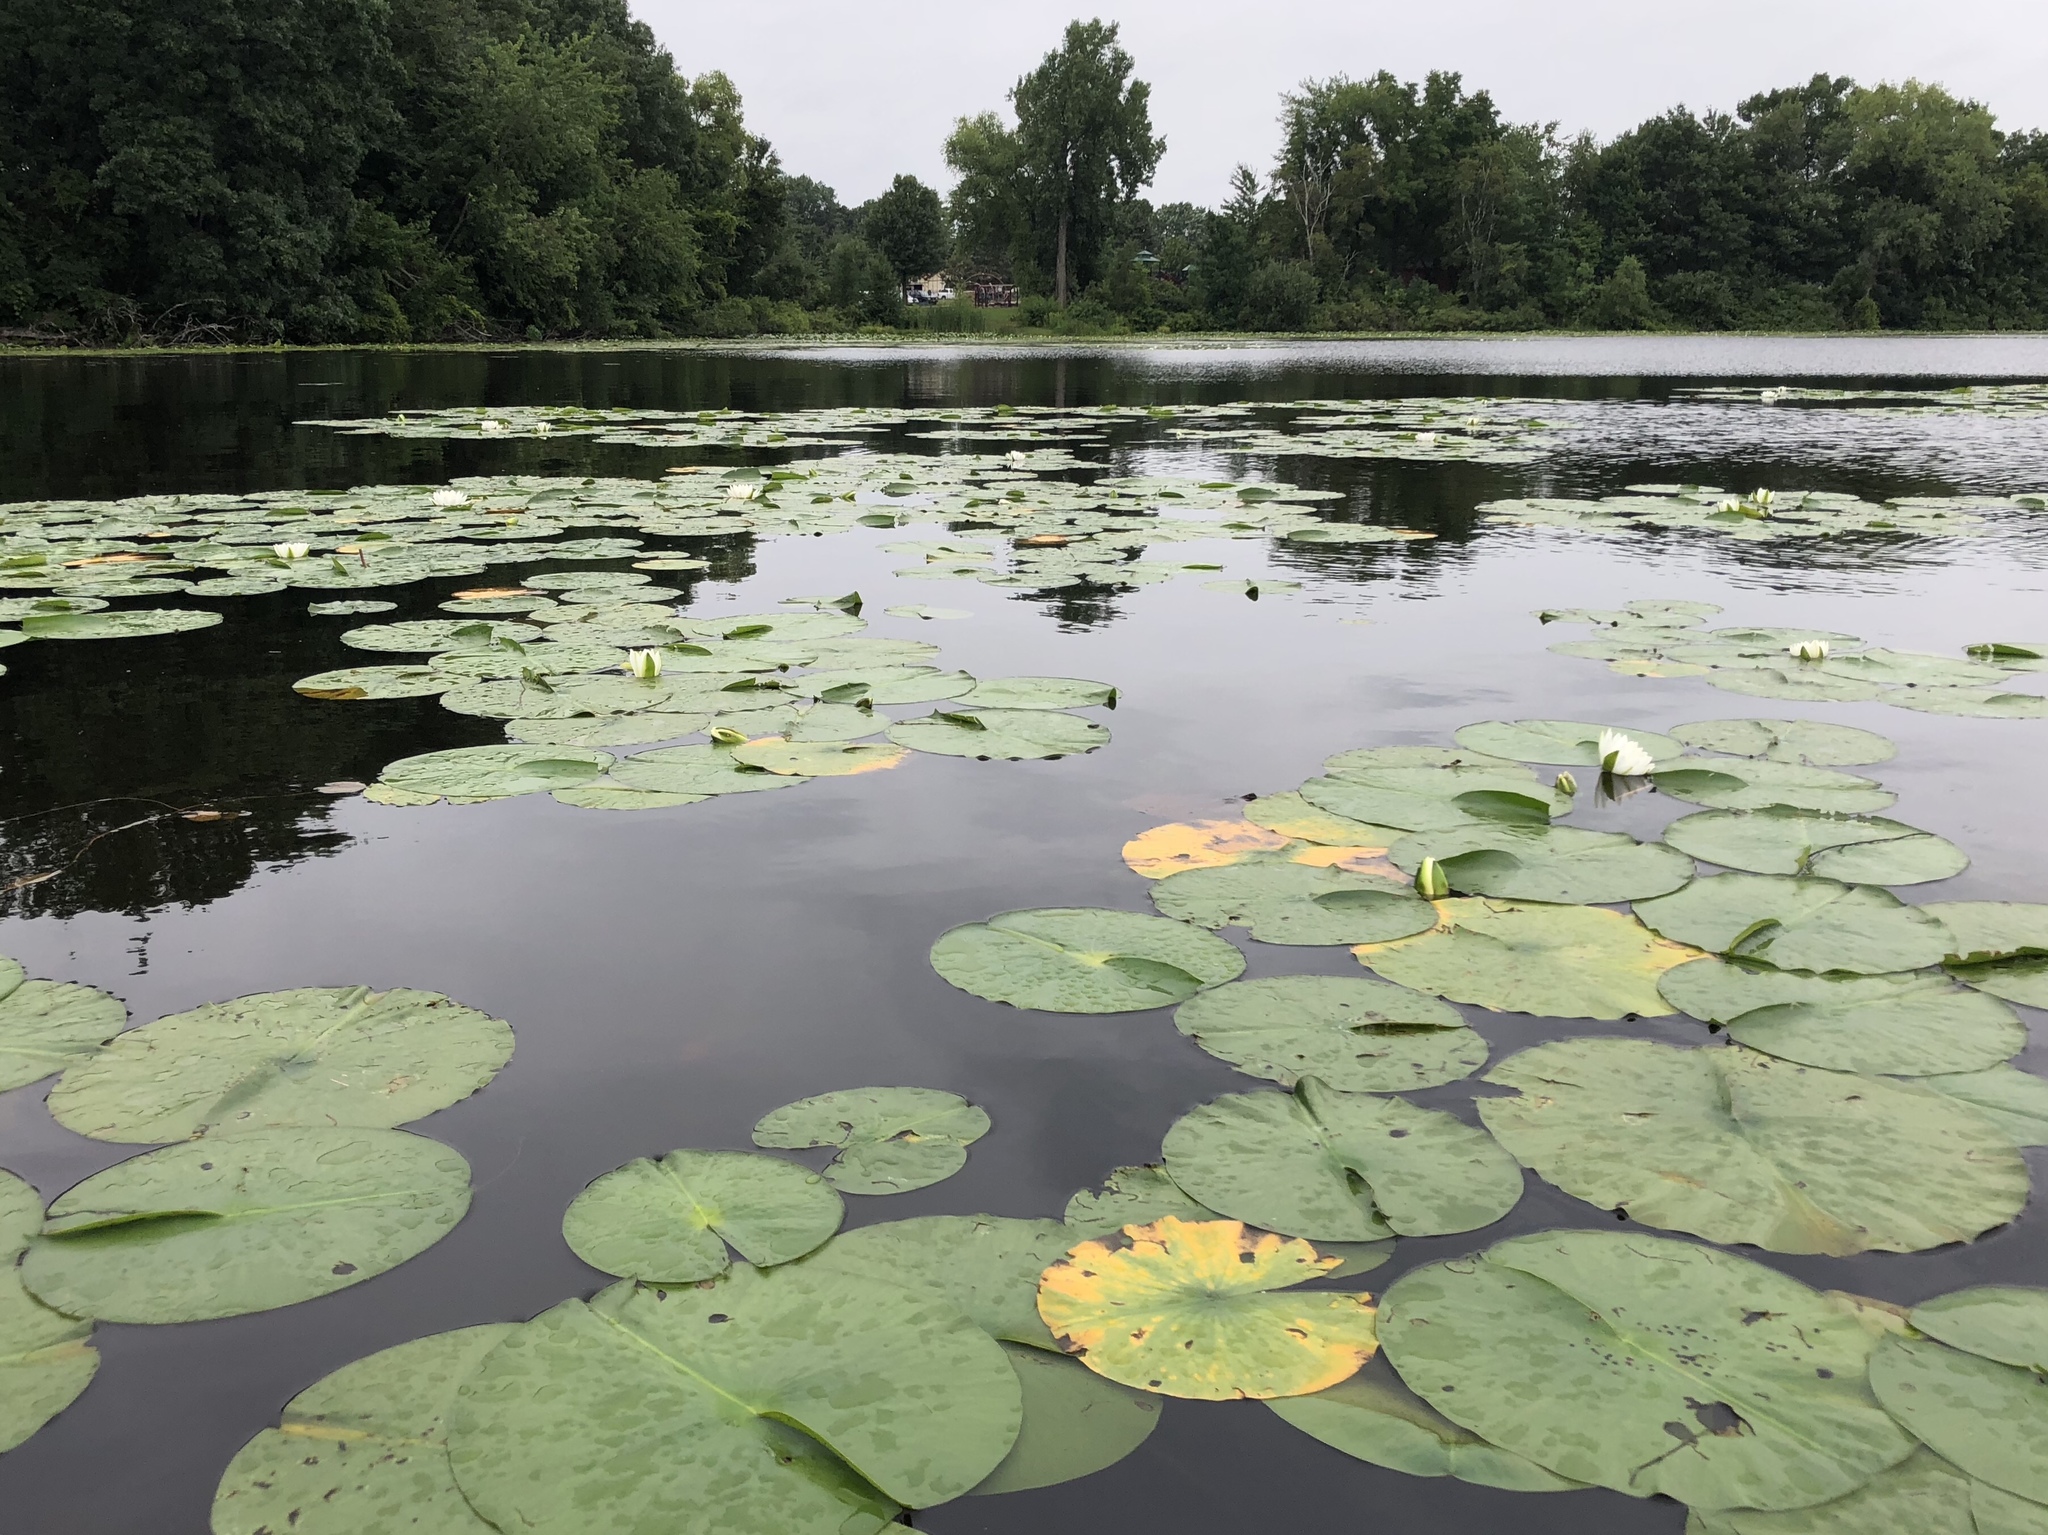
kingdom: Plantae
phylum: Tracheophyta
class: Magnoliopsida
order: Nymphaeales
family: Nymphaeaceae
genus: Nymphaea
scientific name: Nymphaea odorata
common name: Fragrant water-lily
